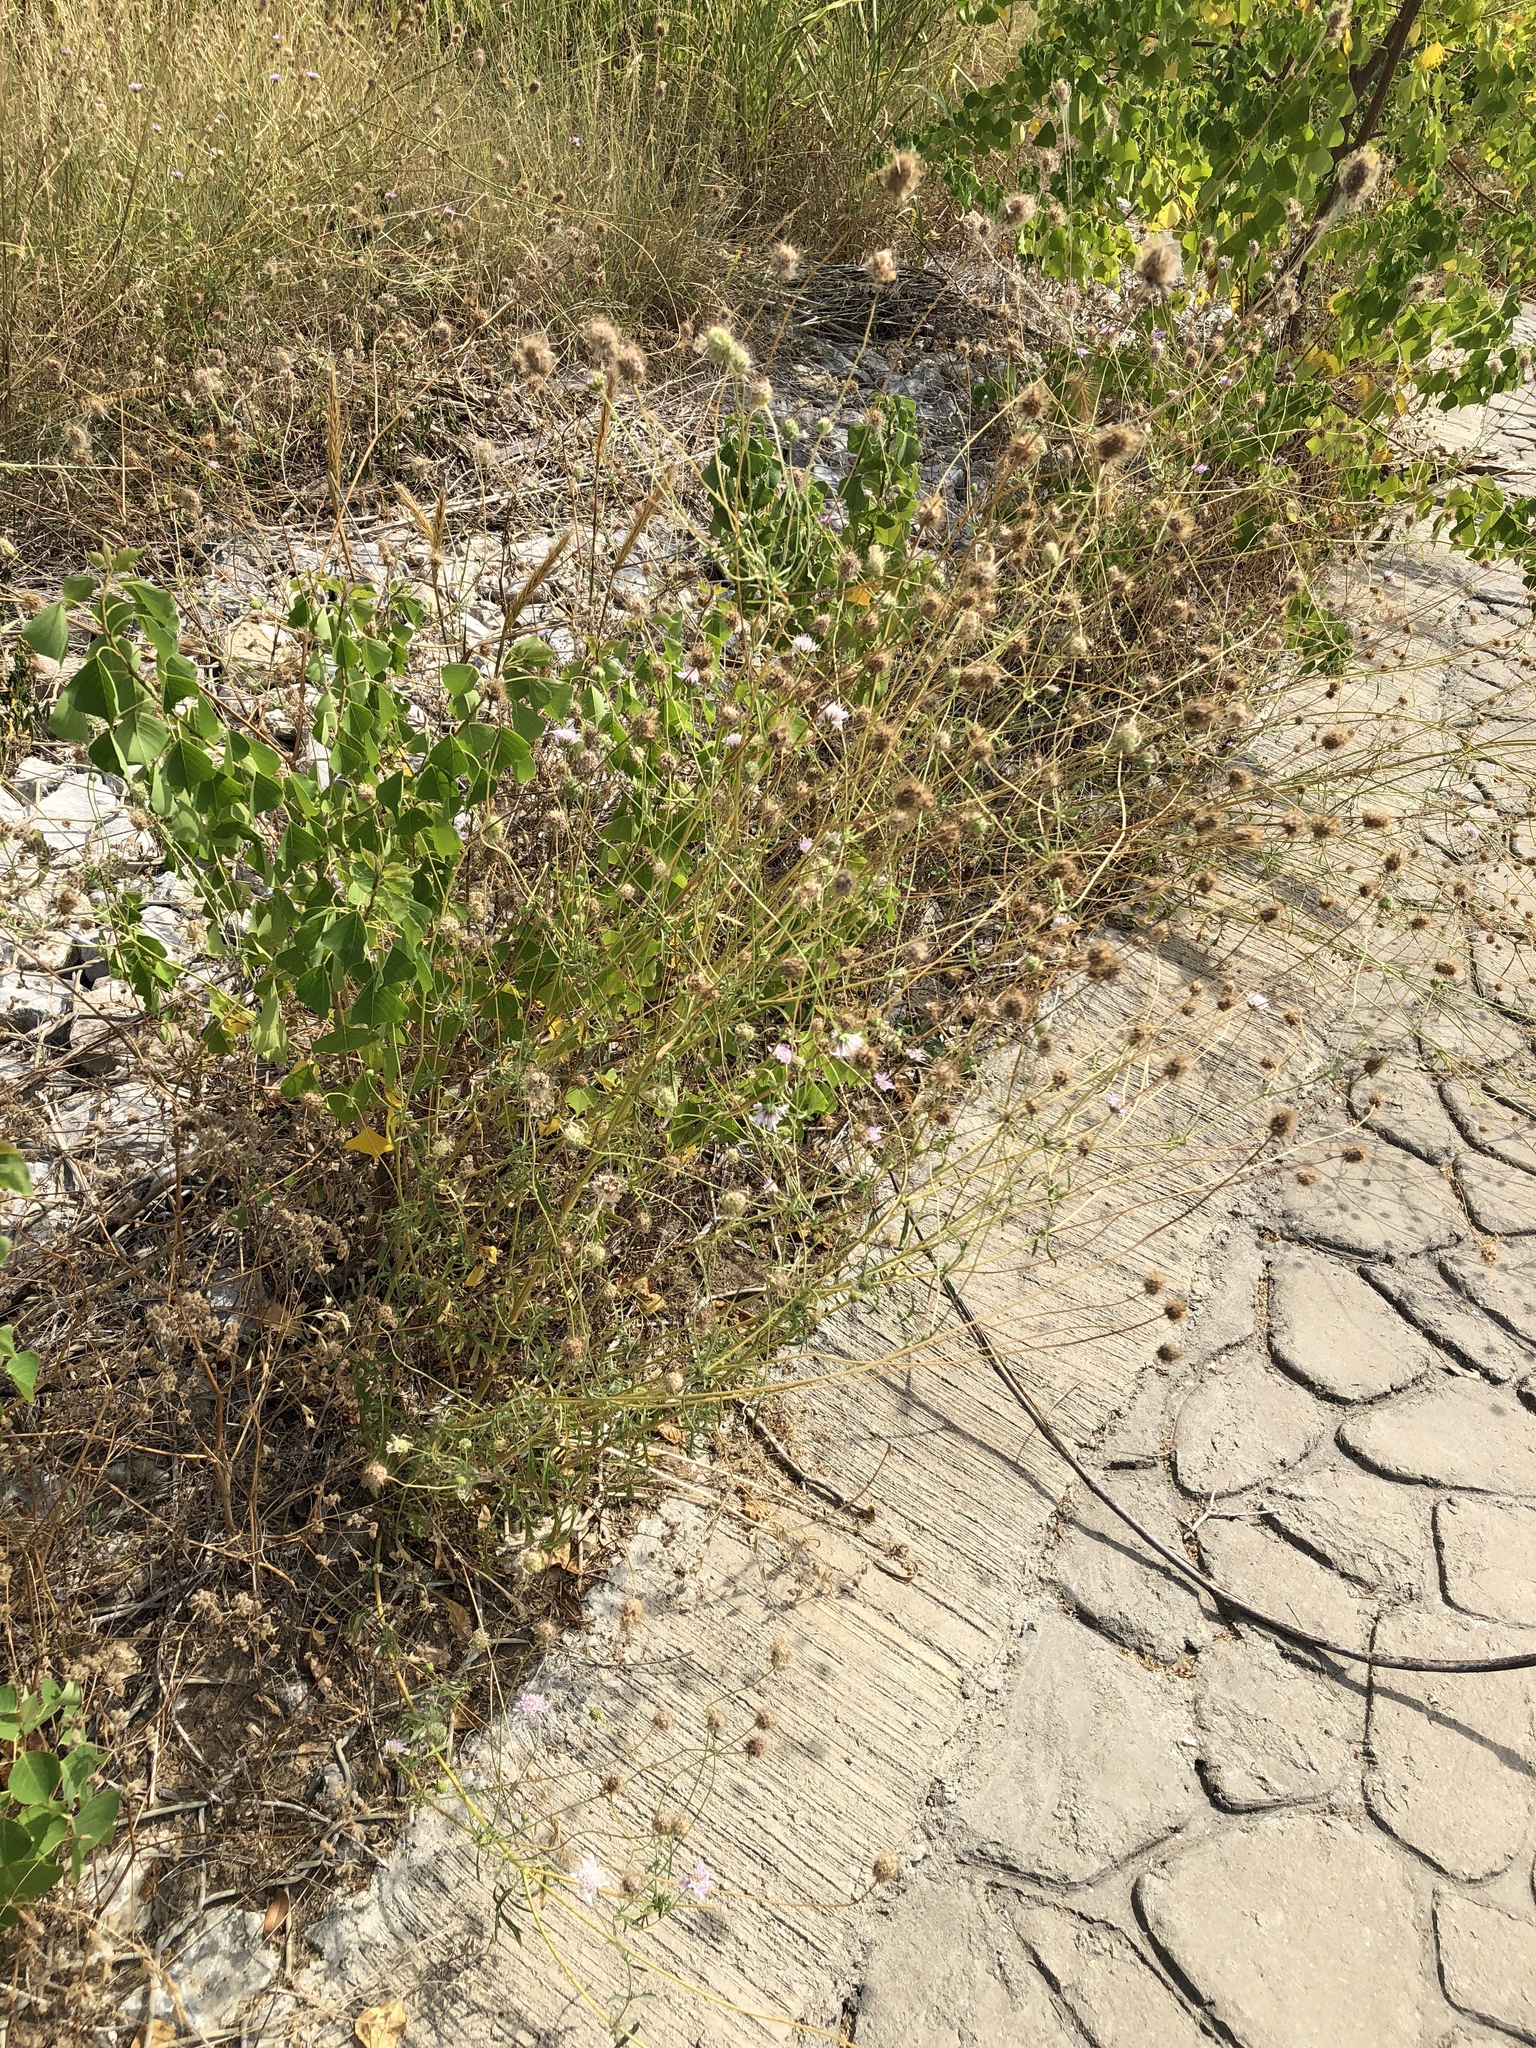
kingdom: Plantae
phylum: Tracheophyta
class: Magnoliopsida
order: Dipsacales
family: Caprifoliaceae
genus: Sixalix
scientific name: Sixalix atropurpurea
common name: Sweet scabious
